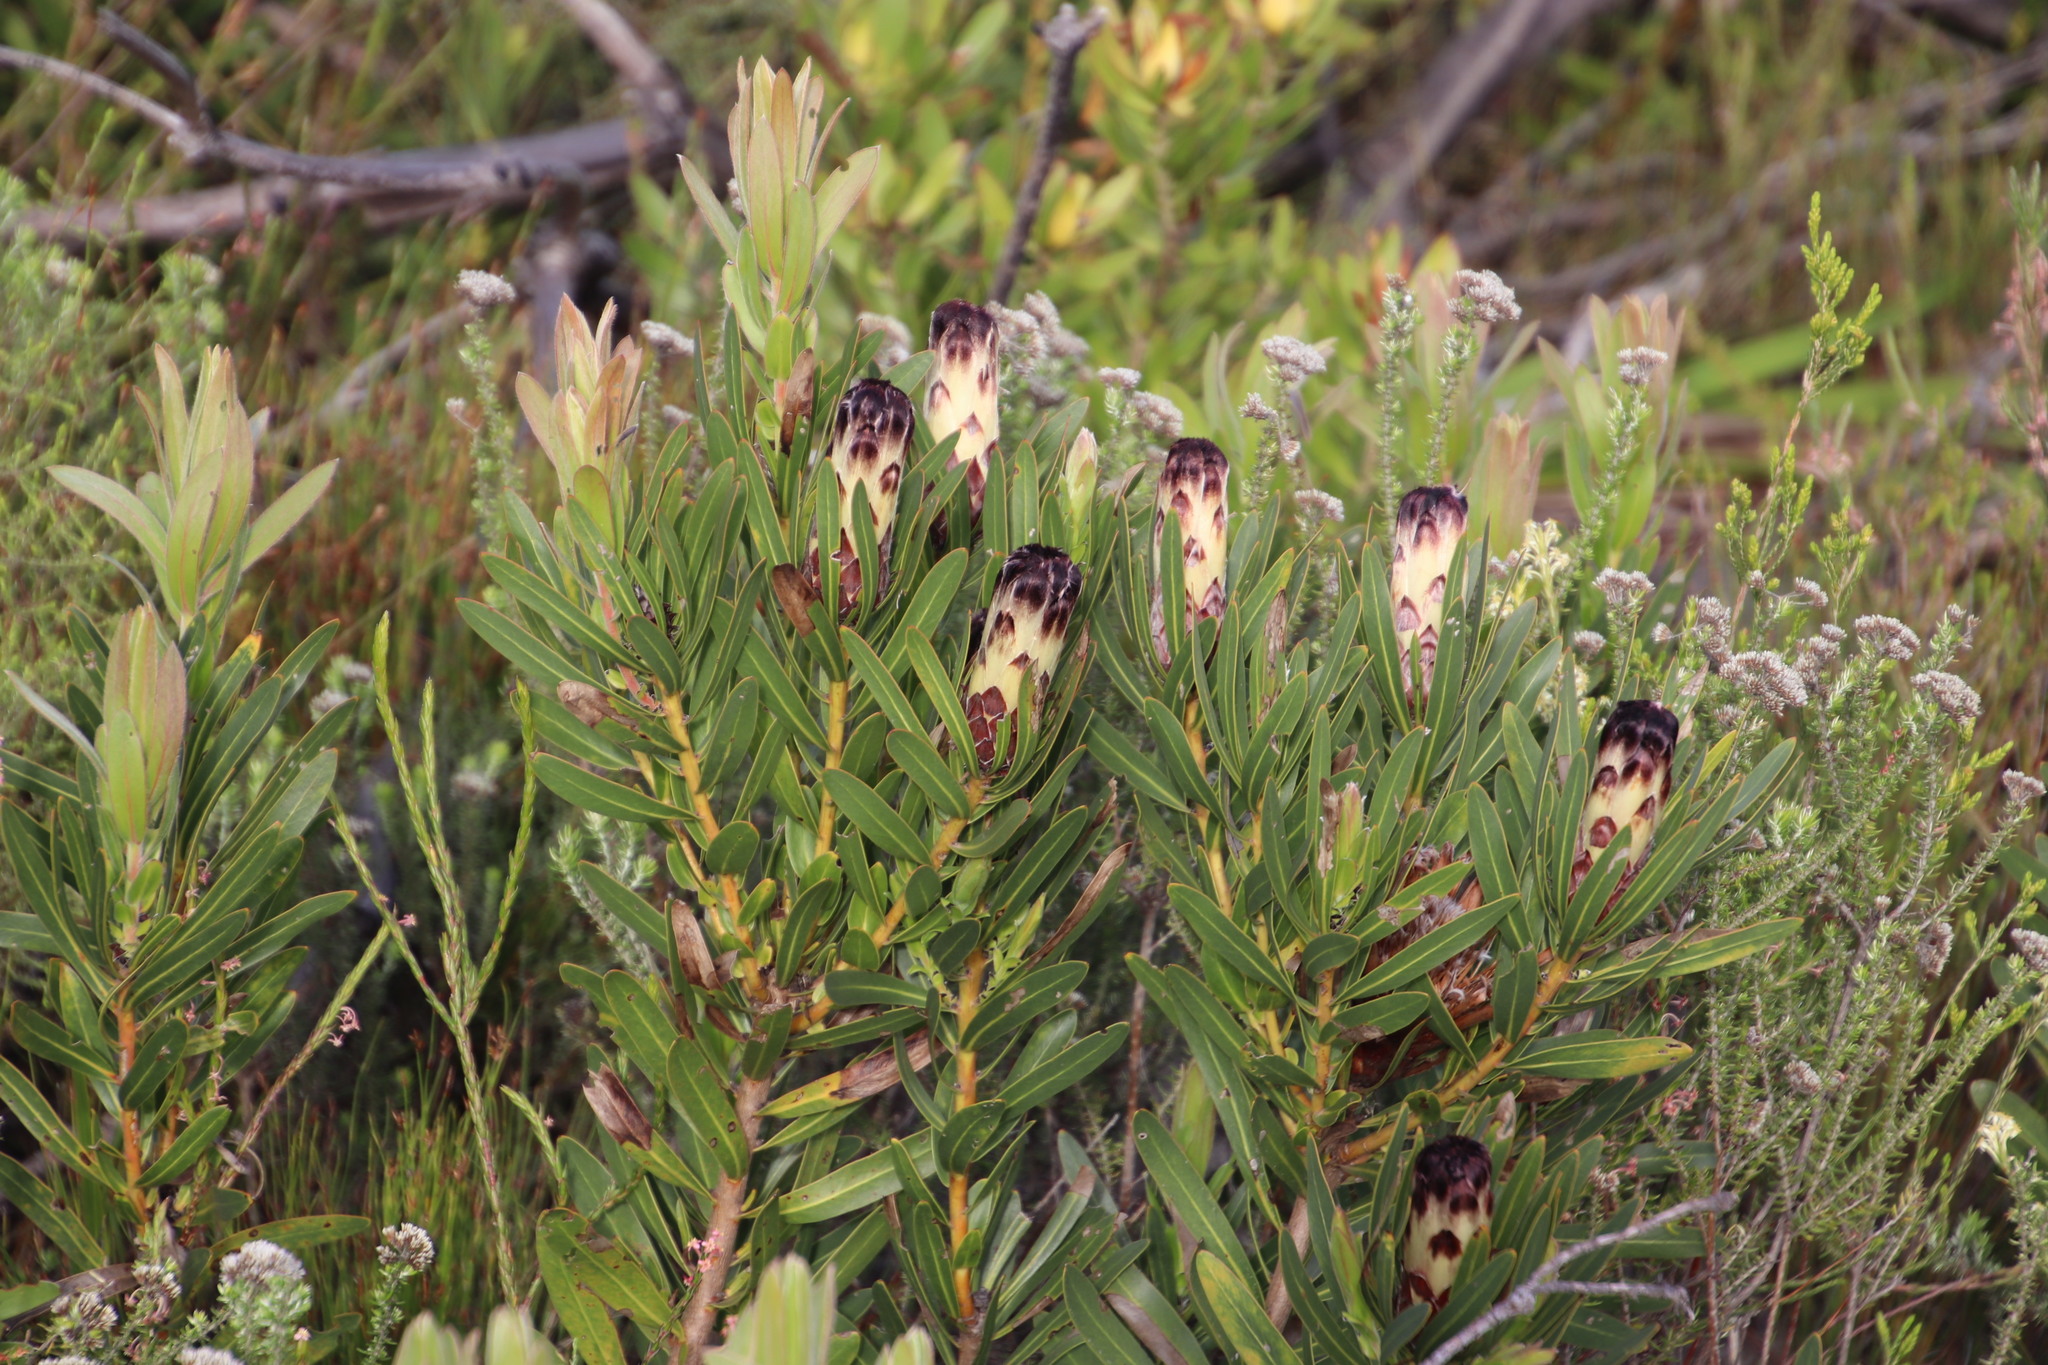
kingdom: Plantae
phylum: Tracheophyta
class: Magnoliopsida
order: Proteales
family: Proteaceae
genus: Protea
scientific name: Protea lepidocarpodendron
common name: Black-bearded protea
